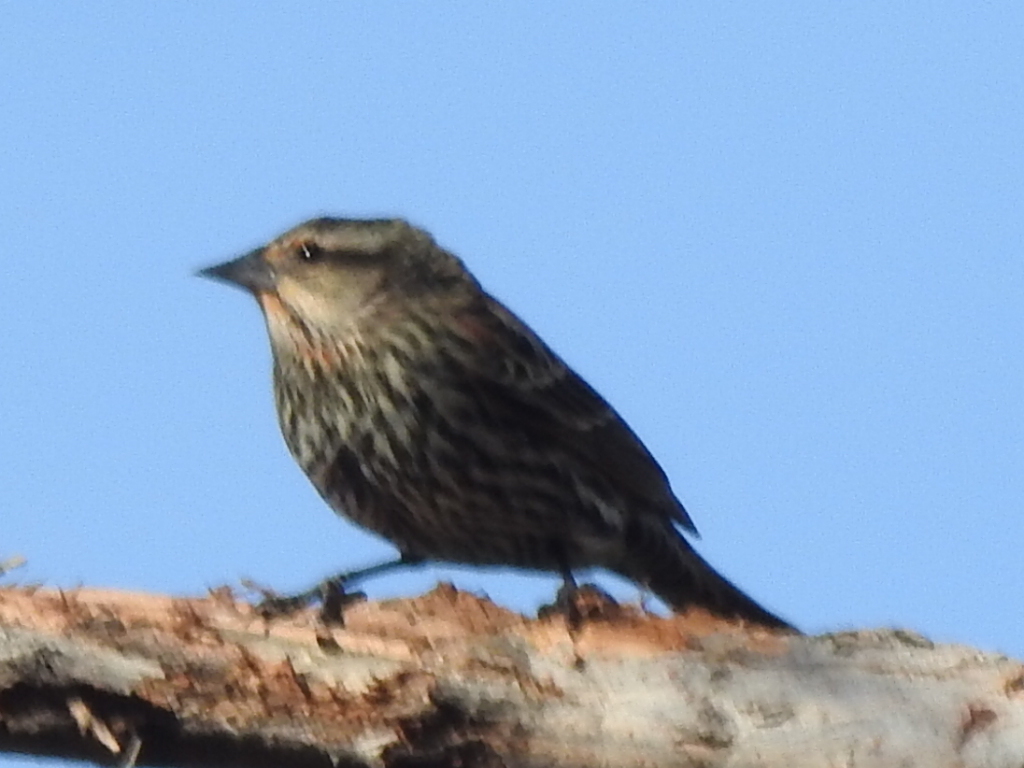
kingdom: Animalia
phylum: Chordata
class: Aves
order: Passeriformes
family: Icteridae
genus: Agelaius
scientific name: Agelaius phoeniceus
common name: Red-winged blackbird
